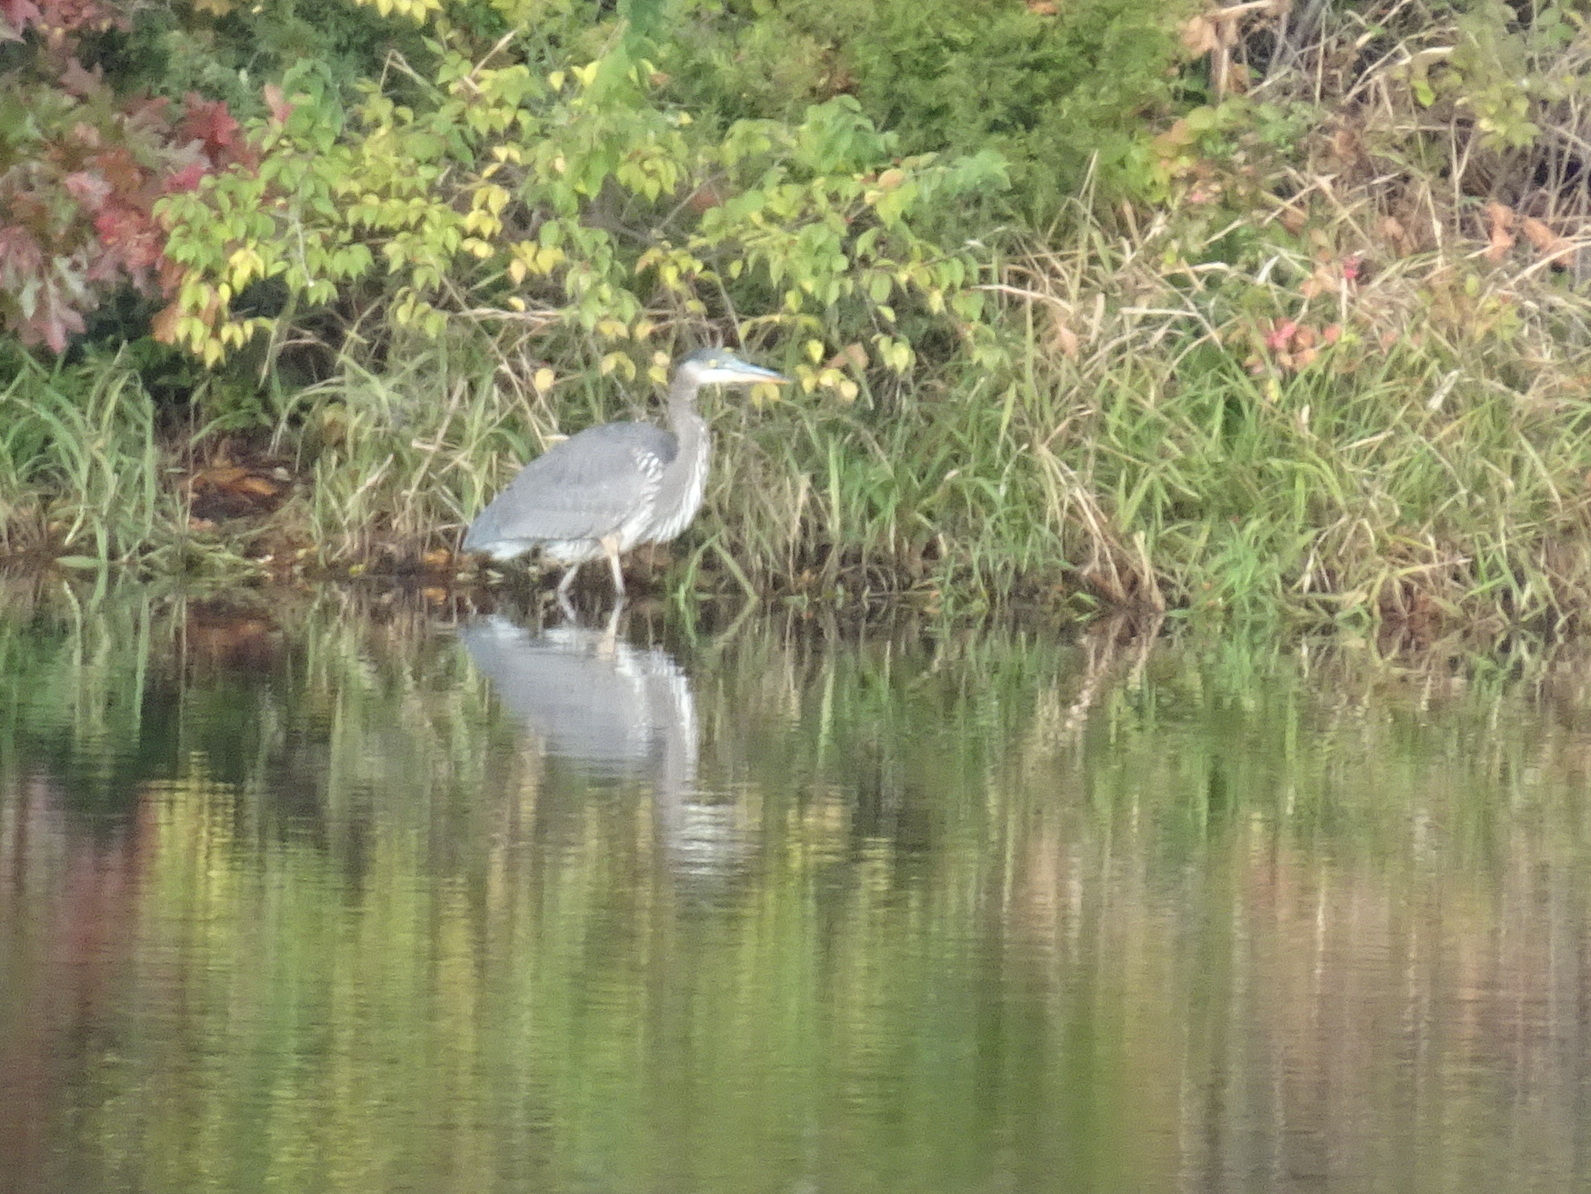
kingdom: Animalia
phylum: Chordata
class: Aves
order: Pelecaniformes
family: Ardeidae
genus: Ardea
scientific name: Ardea herodias
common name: Great blue heron
